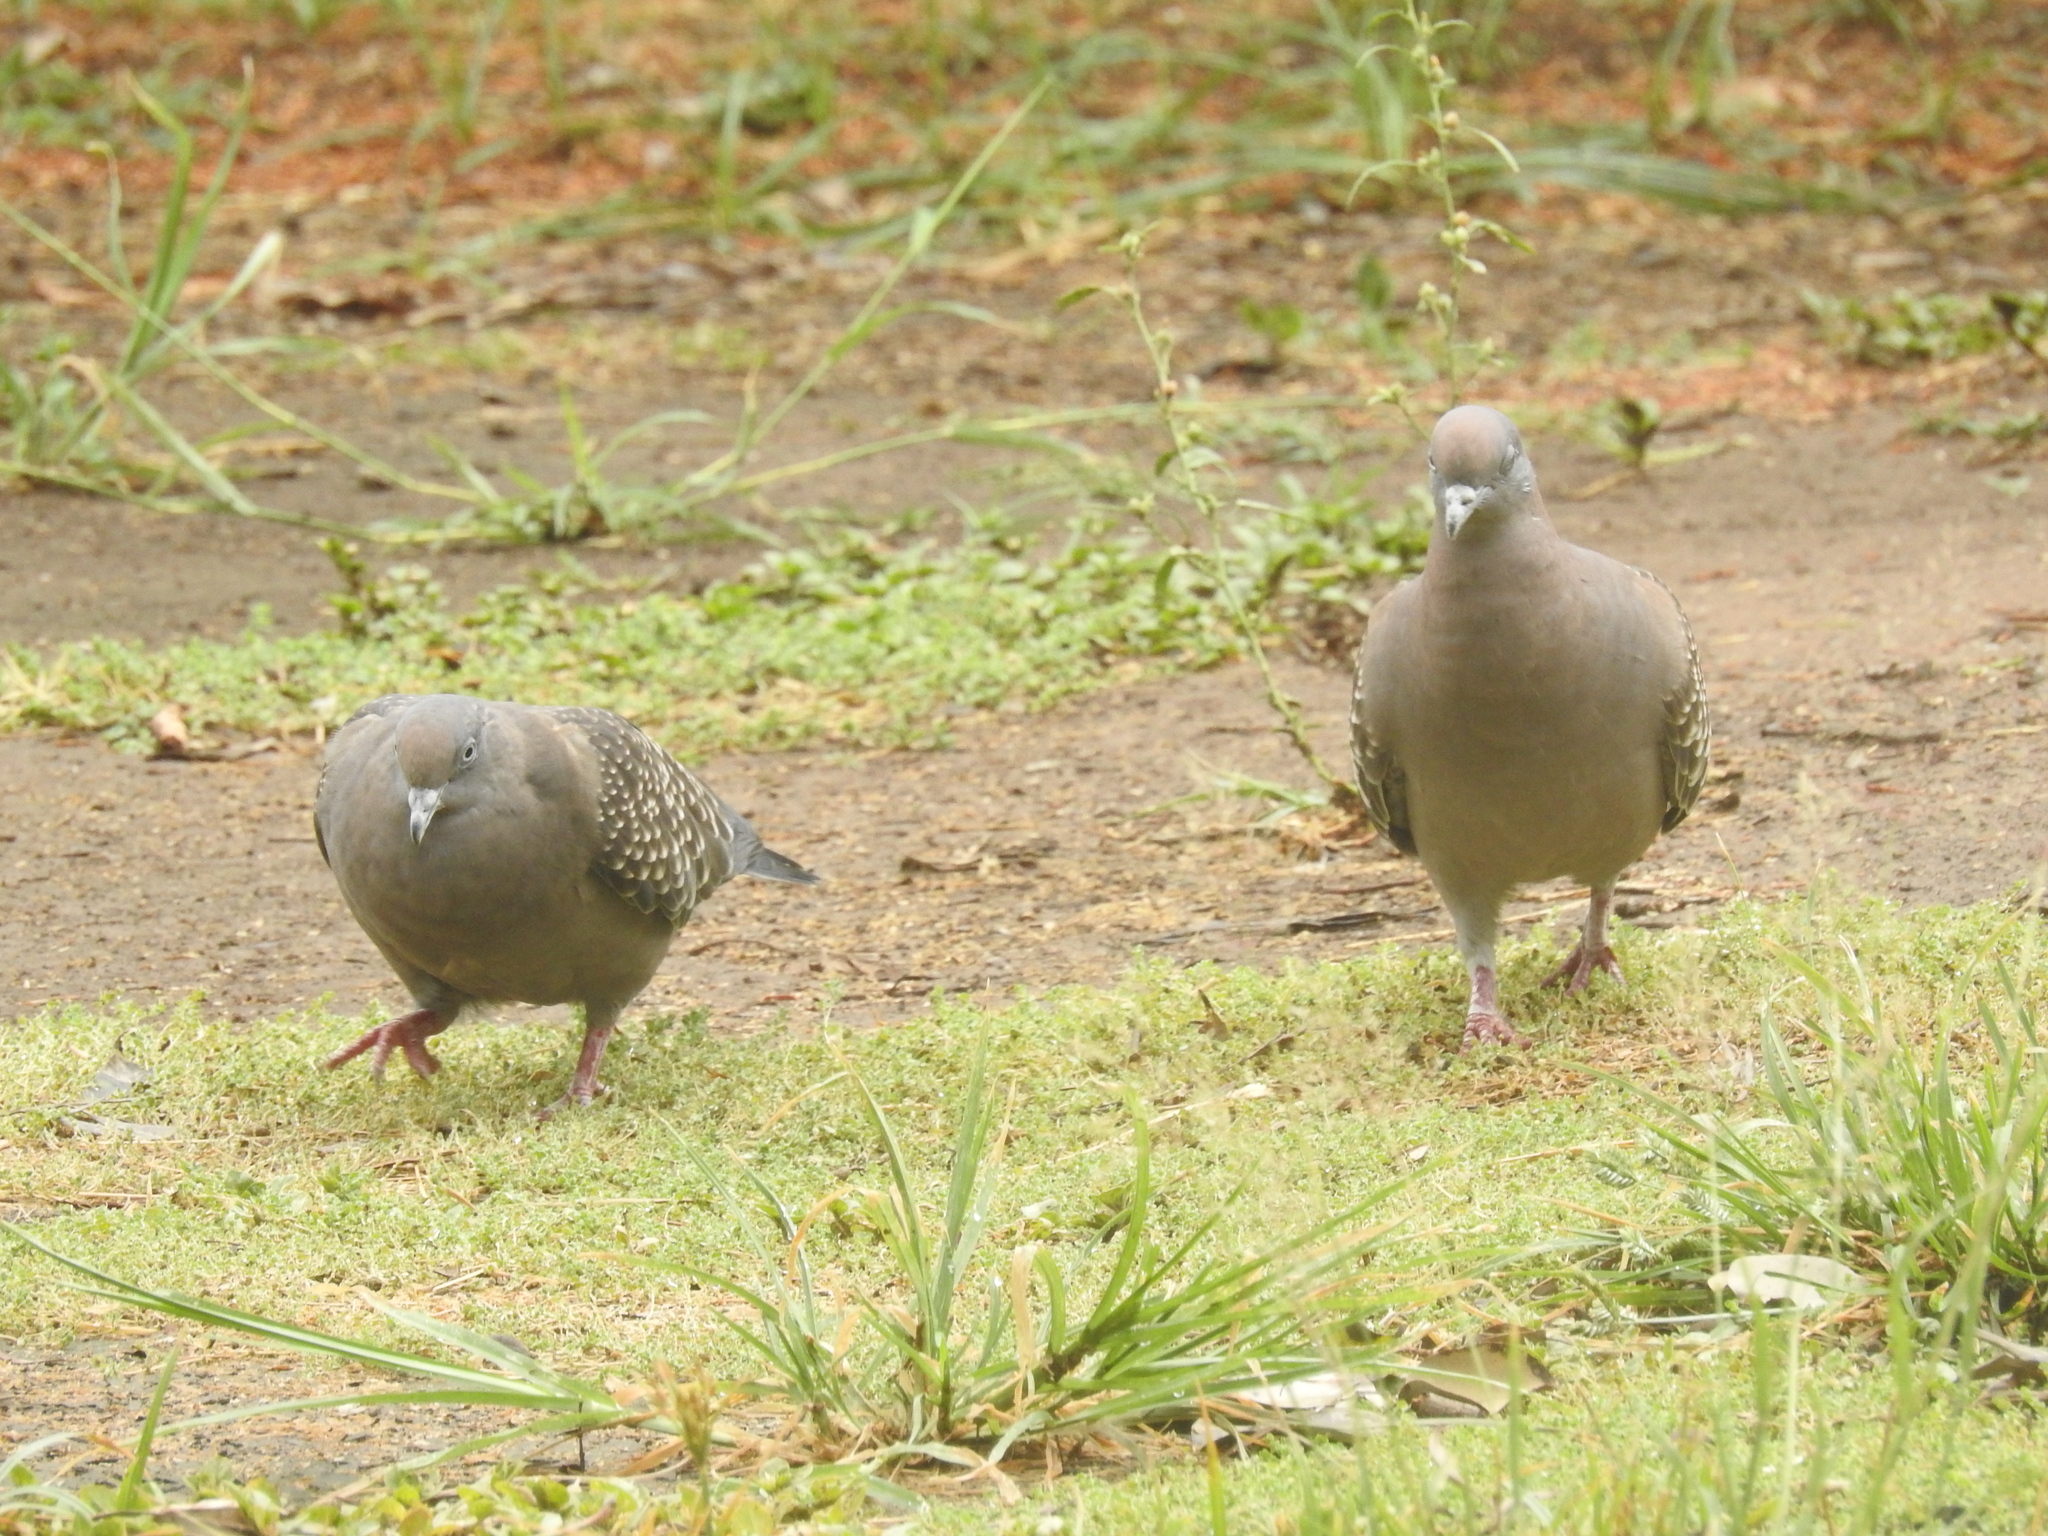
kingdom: Animalia
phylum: Chordata
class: Aves
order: Columbiformes
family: Columbidae
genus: Patagioenas
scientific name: Patagioenas maculosa
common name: Spot-winged pigeon
